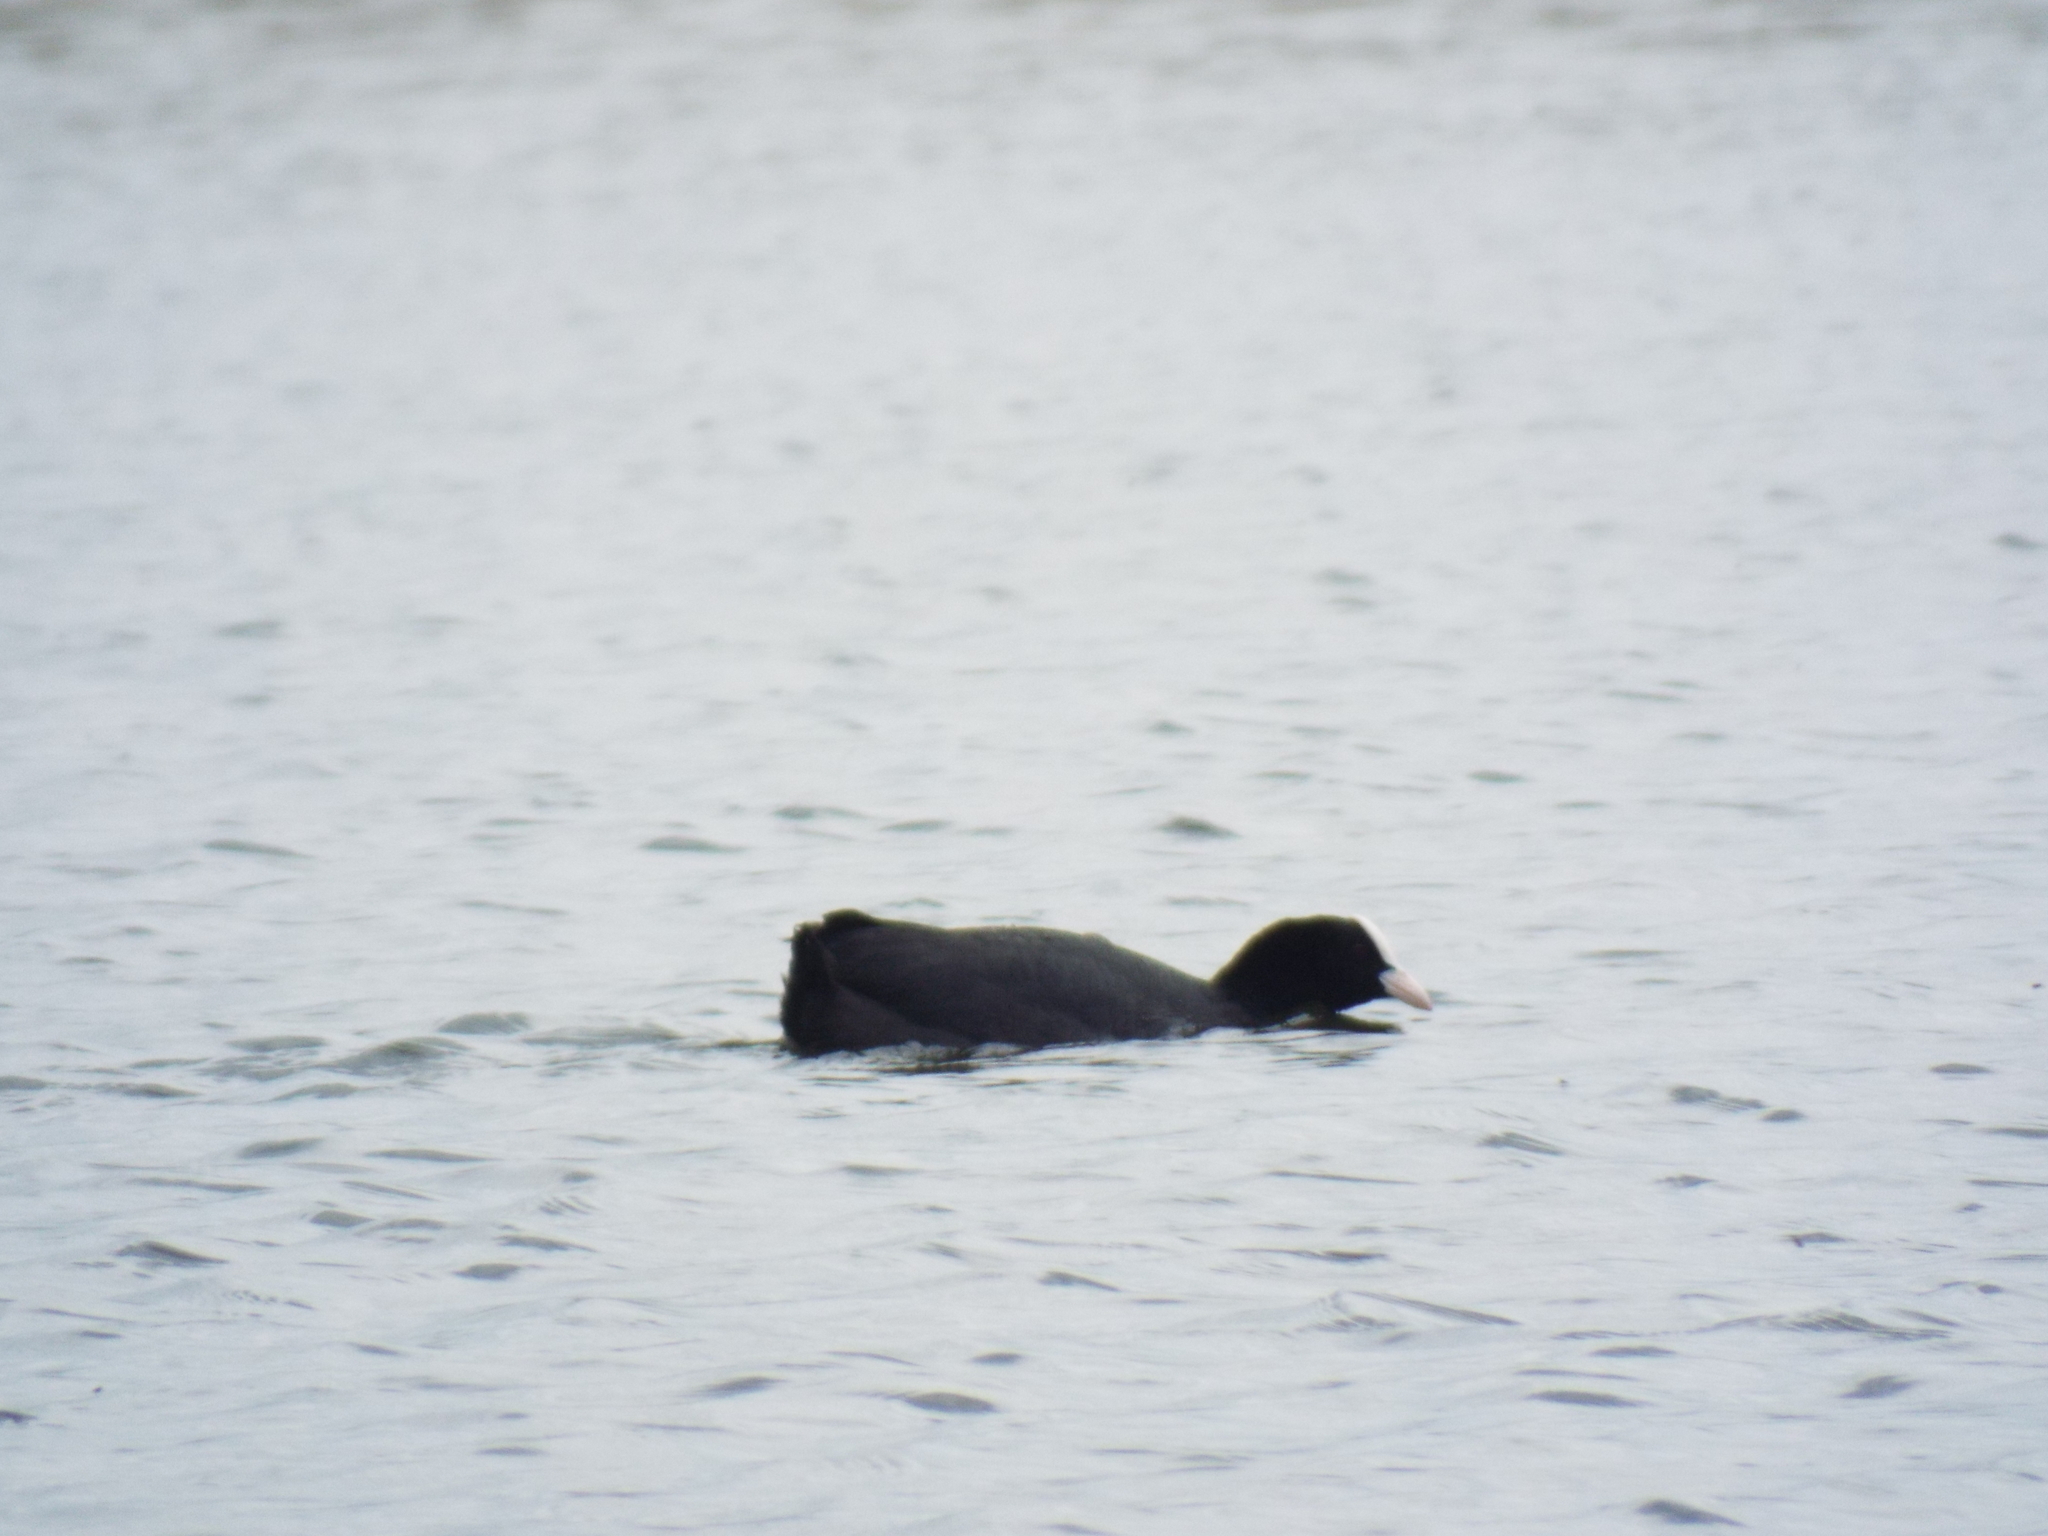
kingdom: Animalia
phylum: Chordata
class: Aves
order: Gruiformes
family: Rallidae
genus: Fulica
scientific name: Fulica atra
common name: Eurasian coot
